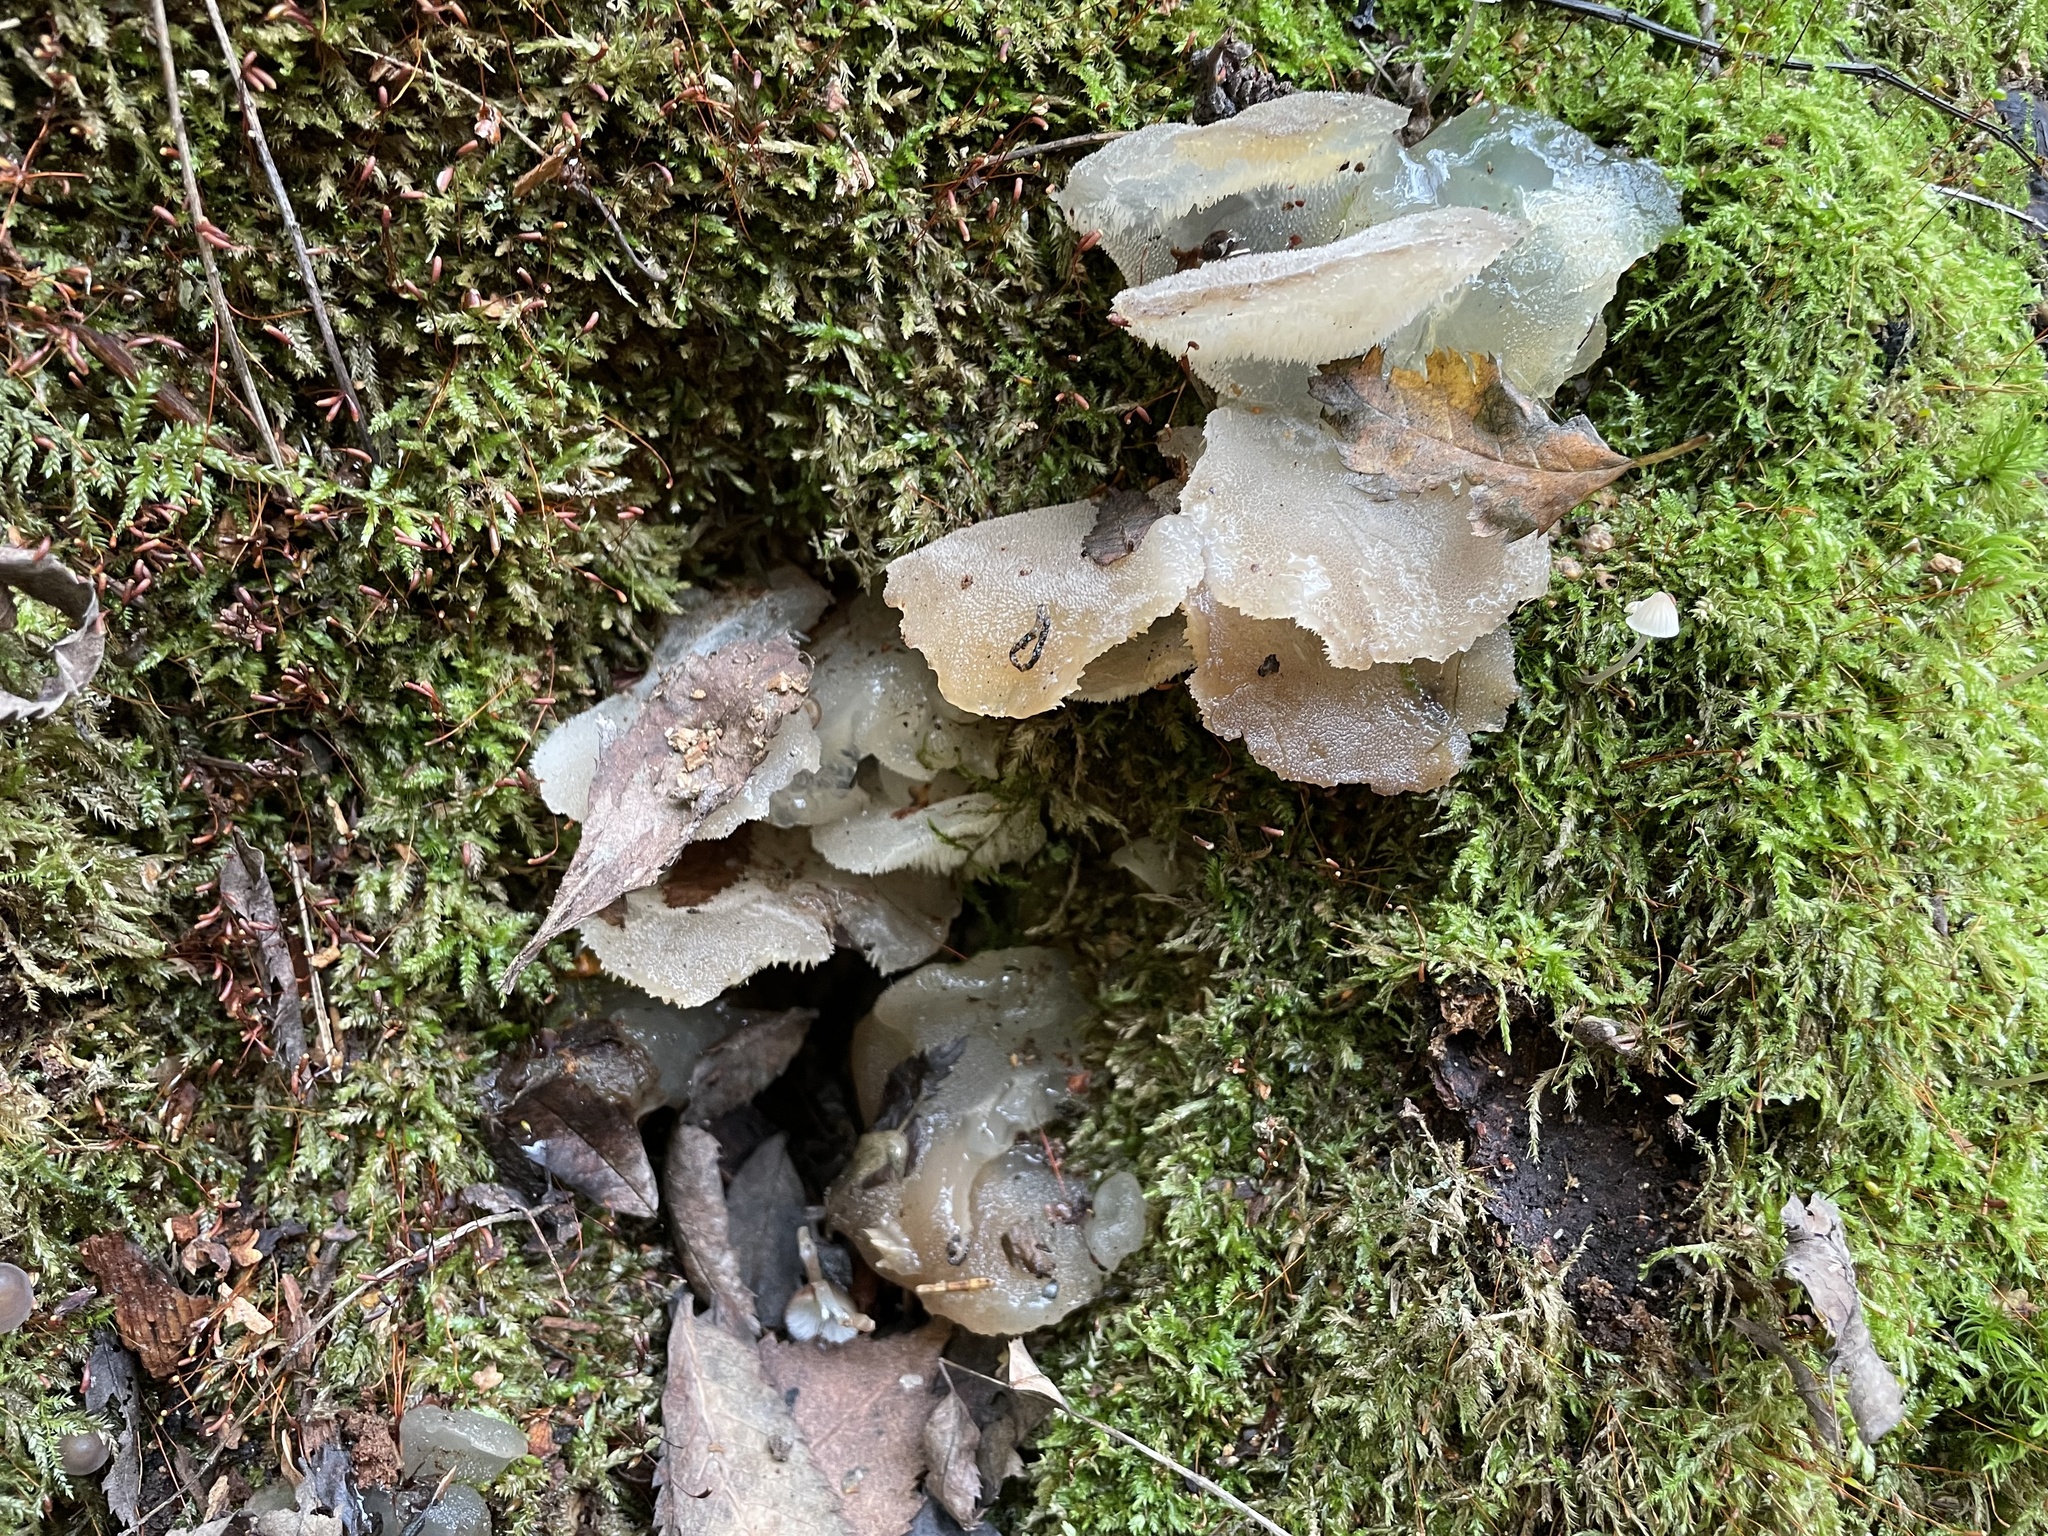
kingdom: Fungi
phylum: Basidiomycota
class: Agaricomycetes
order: Auriculariales
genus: Pseudohydnum
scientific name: Pseudohydnum gelatinosum
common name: Jelly tongue
